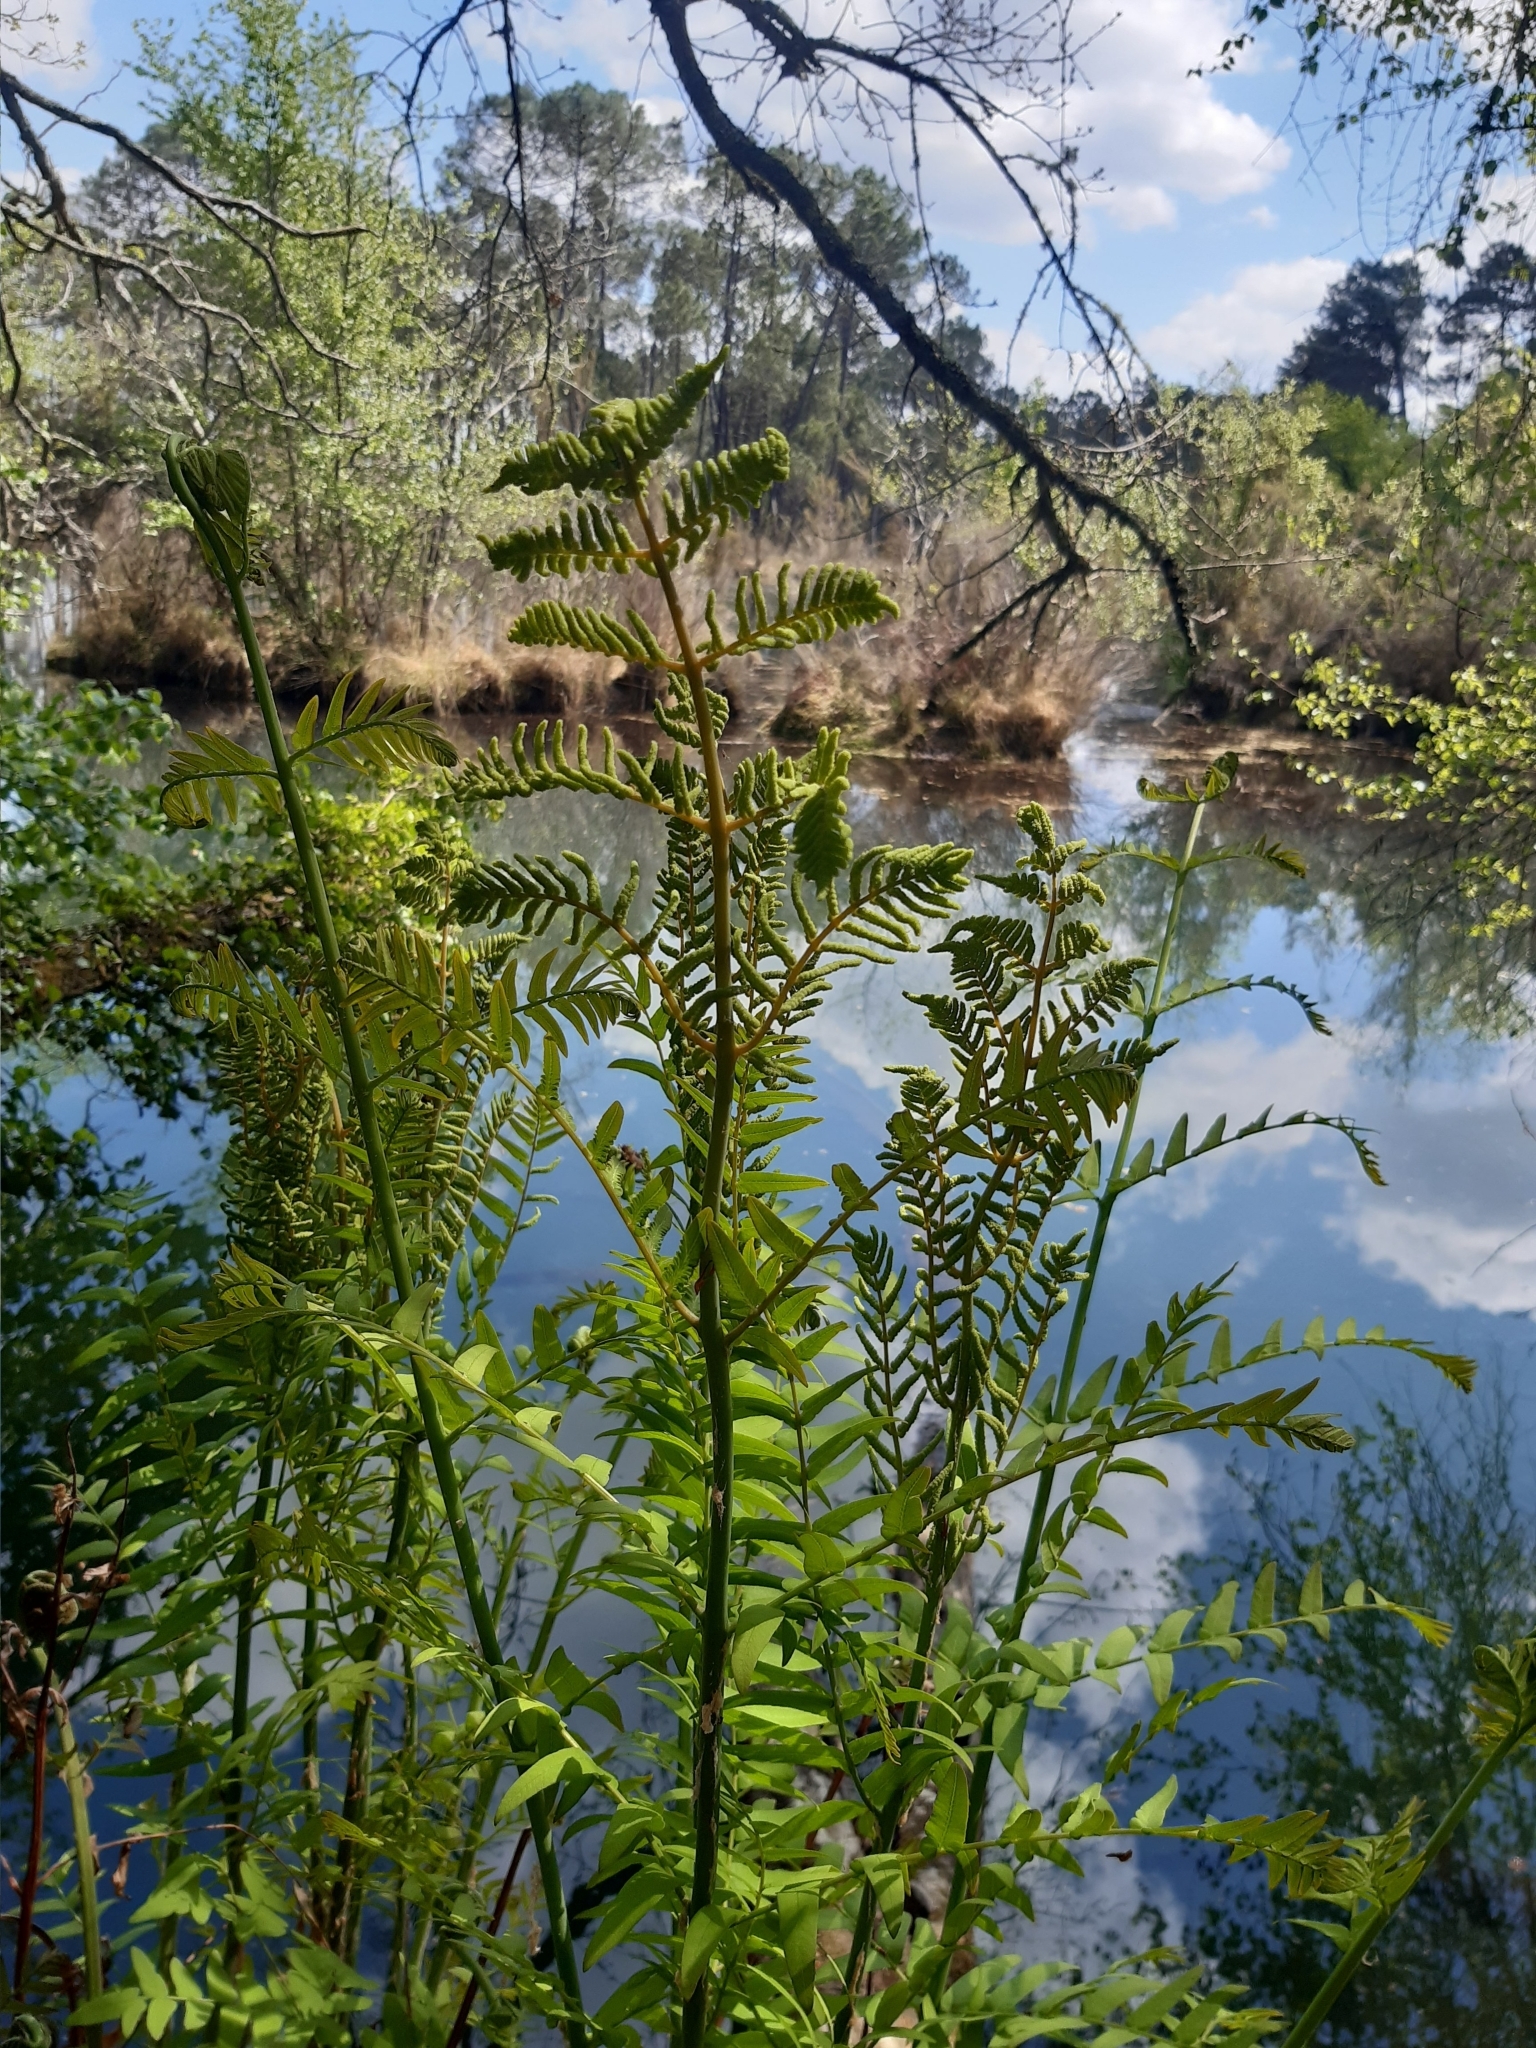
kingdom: Plantae
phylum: Tracheophyta
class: Polypodiopsida
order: Osmundales
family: Osmundaceae
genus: Osmunda
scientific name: Osmunda regalis
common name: Royal fern
